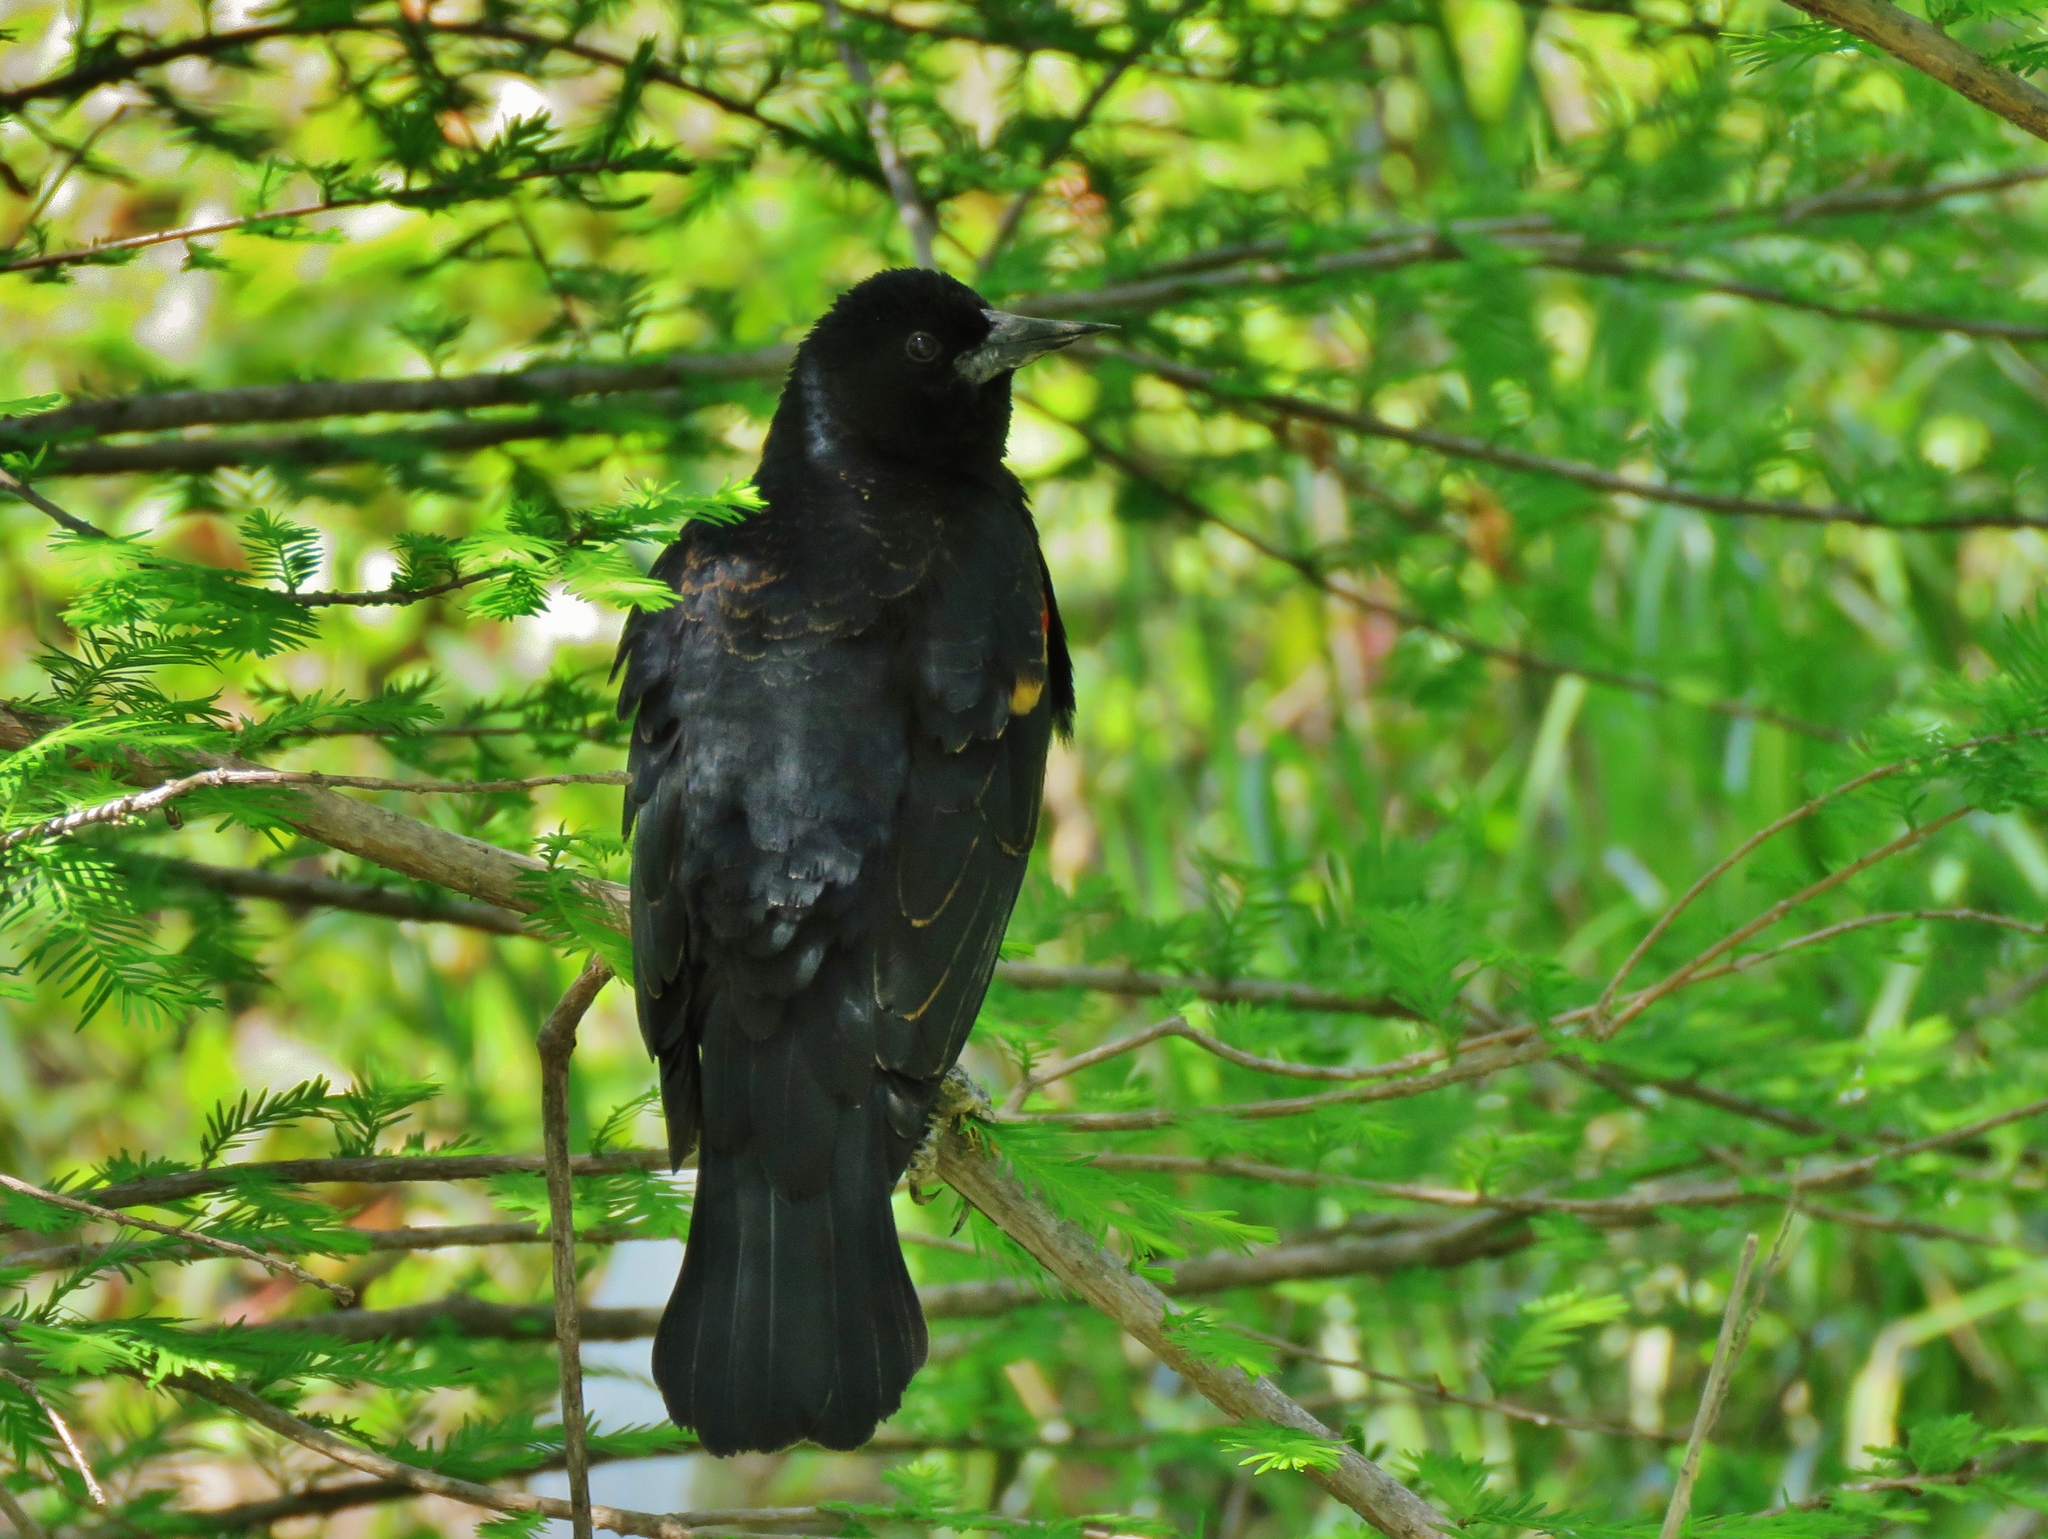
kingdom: Animalia
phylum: Chordata
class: Aves
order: Passeriformes
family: Icteridae
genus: Agelaius
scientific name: Agelaius phoeniceus
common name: Red-winged blackbird
